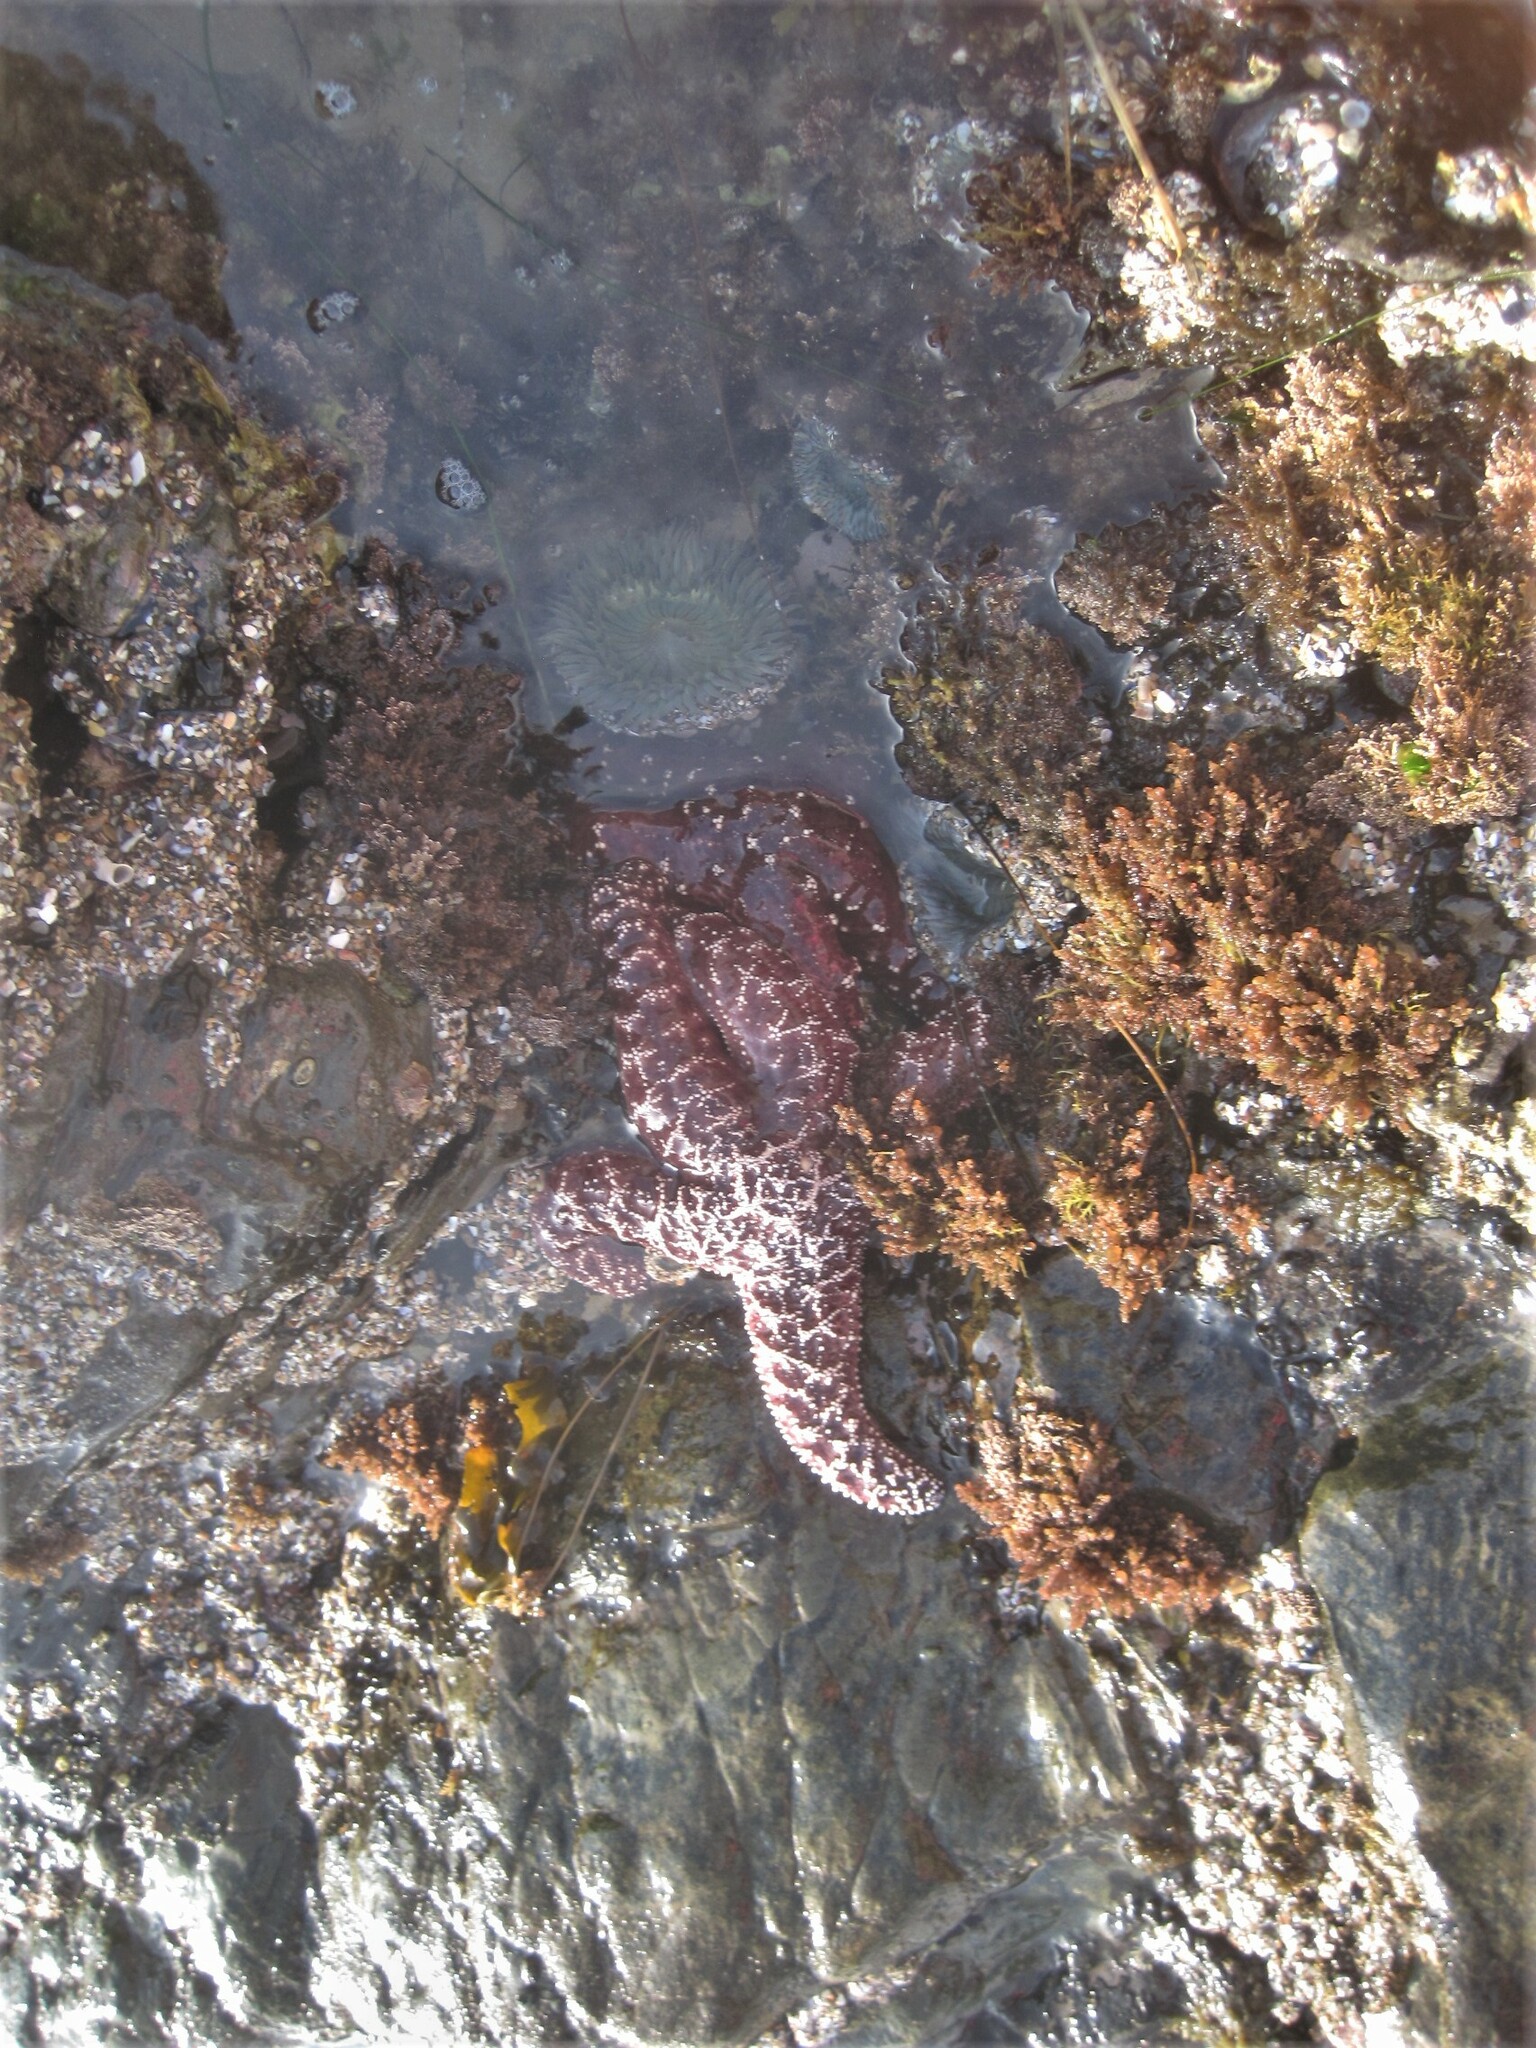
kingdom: Animalia
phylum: Echinodermata
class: Asteroidea
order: Forcipulatida
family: Asteriidae
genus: Pisaster
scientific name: Pisaster ochraceus
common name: Ochre stars
